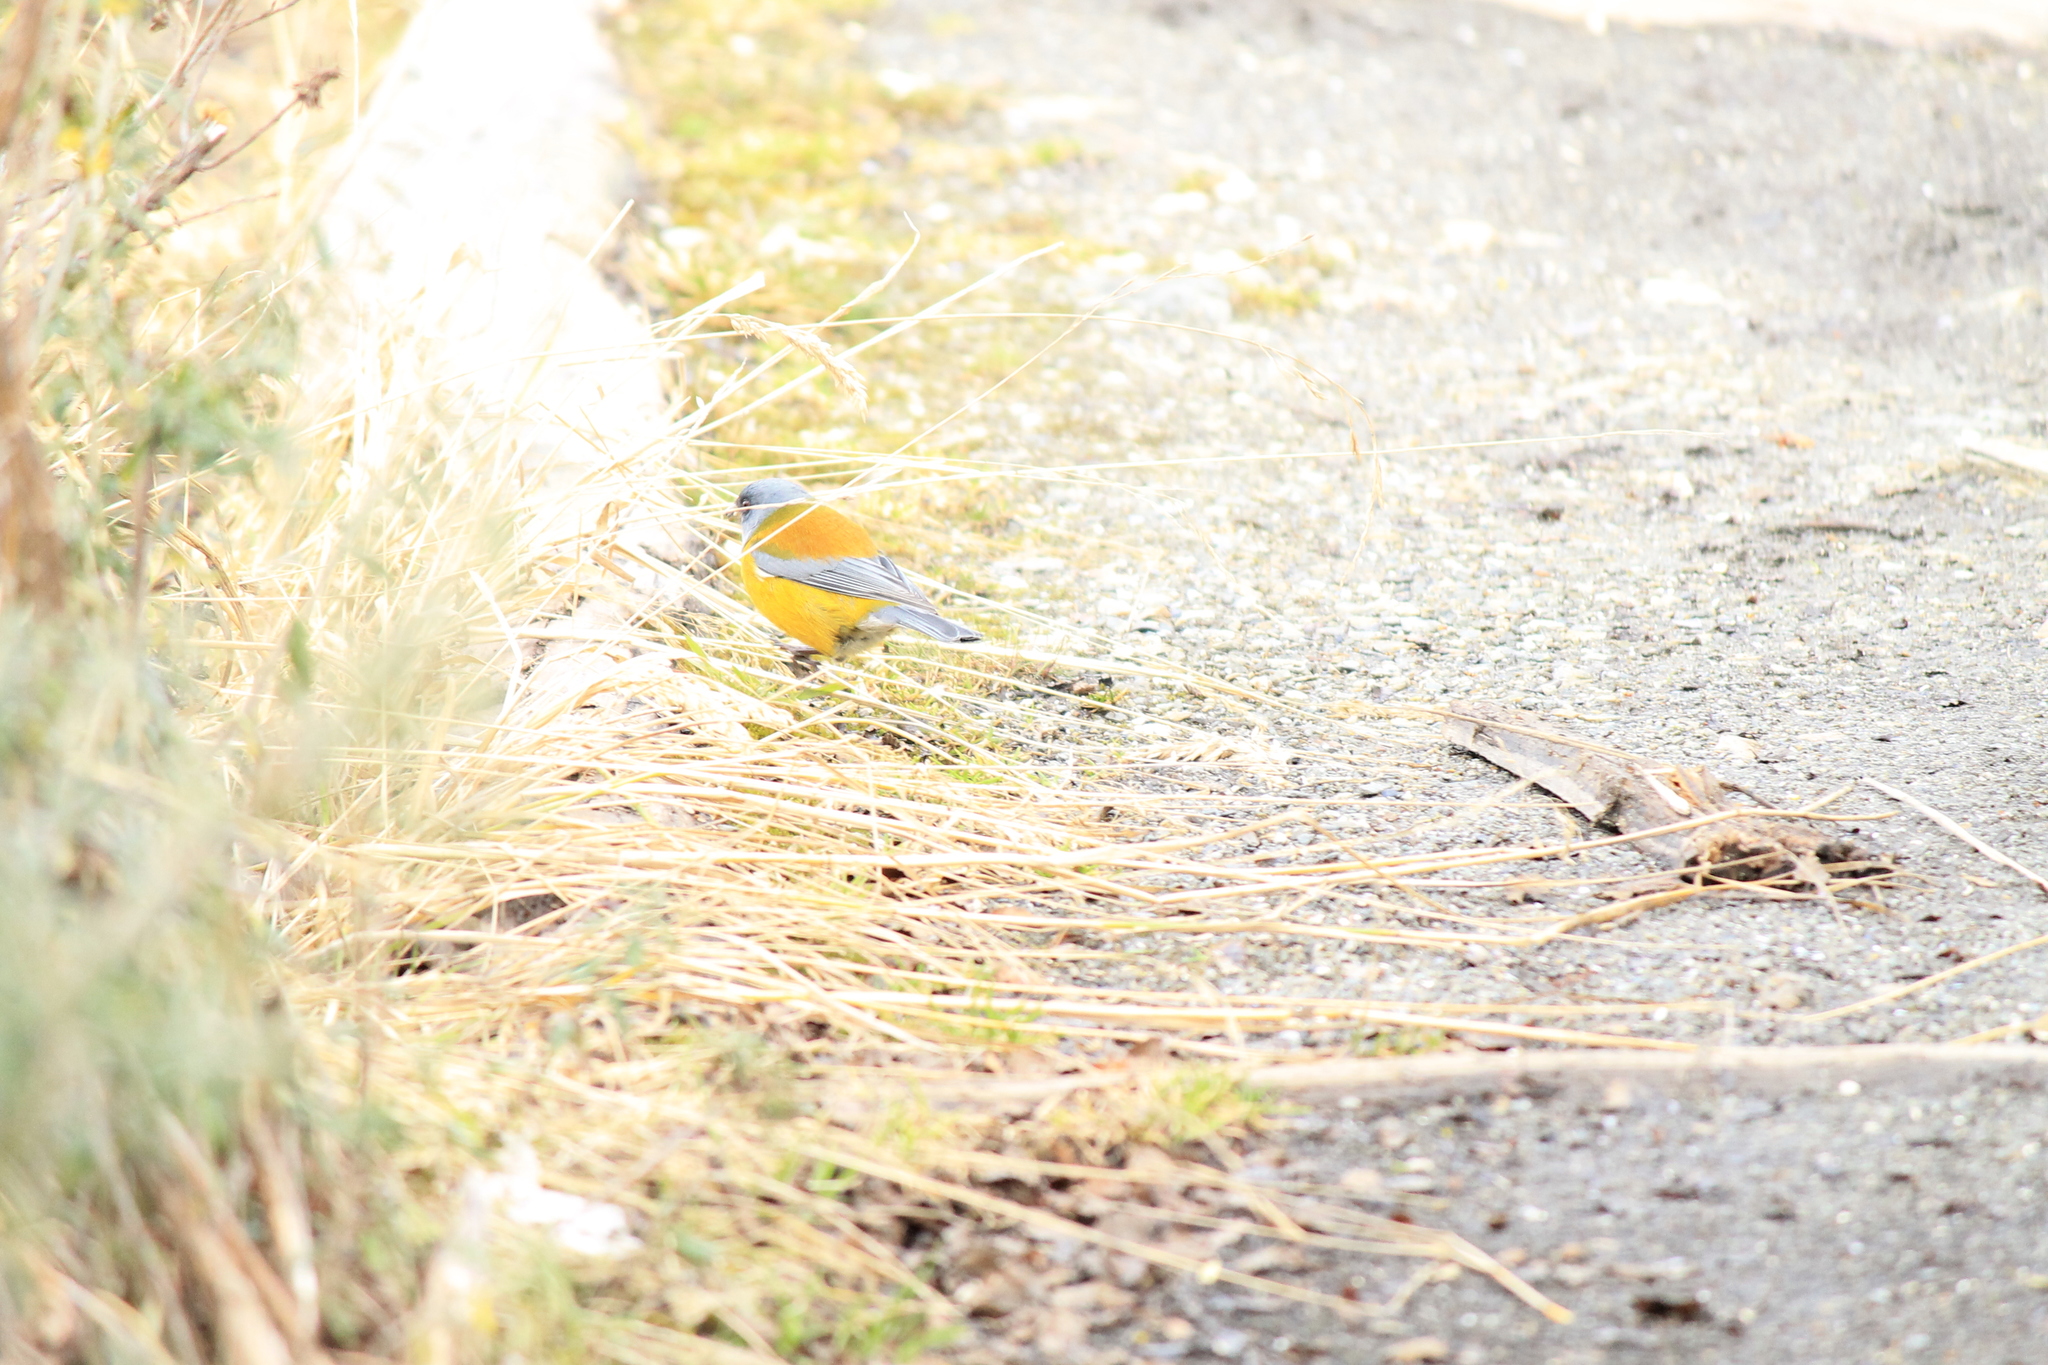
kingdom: Animalia
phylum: Chordata
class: Aves
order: Passeriformes
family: Thraupidae
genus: Phrygilus
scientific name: Phrygilus patagonicus
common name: Patagonian sierra finch
